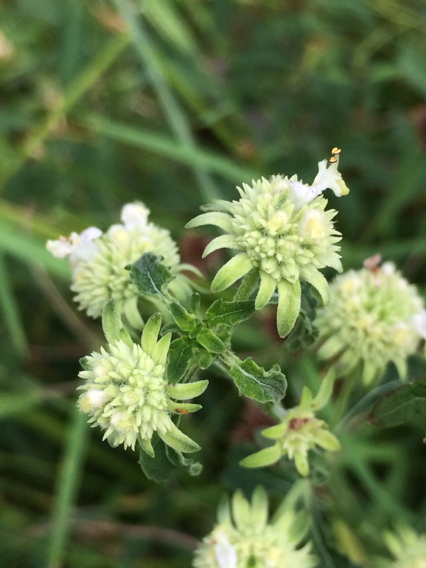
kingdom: Plantae
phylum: Tracheophyta
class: Magnoliopsida
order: Lamiales
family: Lamiaceae
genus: Hyptis
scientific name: Hyptis alata
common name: Cluster bush-mint
